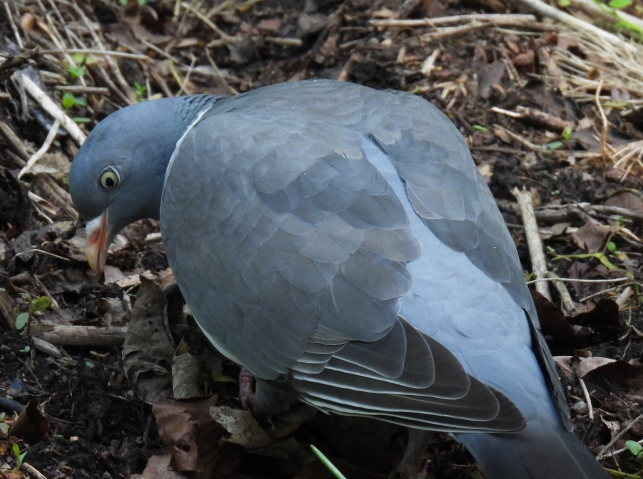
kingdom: Animalia
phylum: Chordata
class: Aves
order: Columbiformes
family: Columbidae
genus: Columba
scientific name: Columba palumbus
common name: Common wood pigeon
